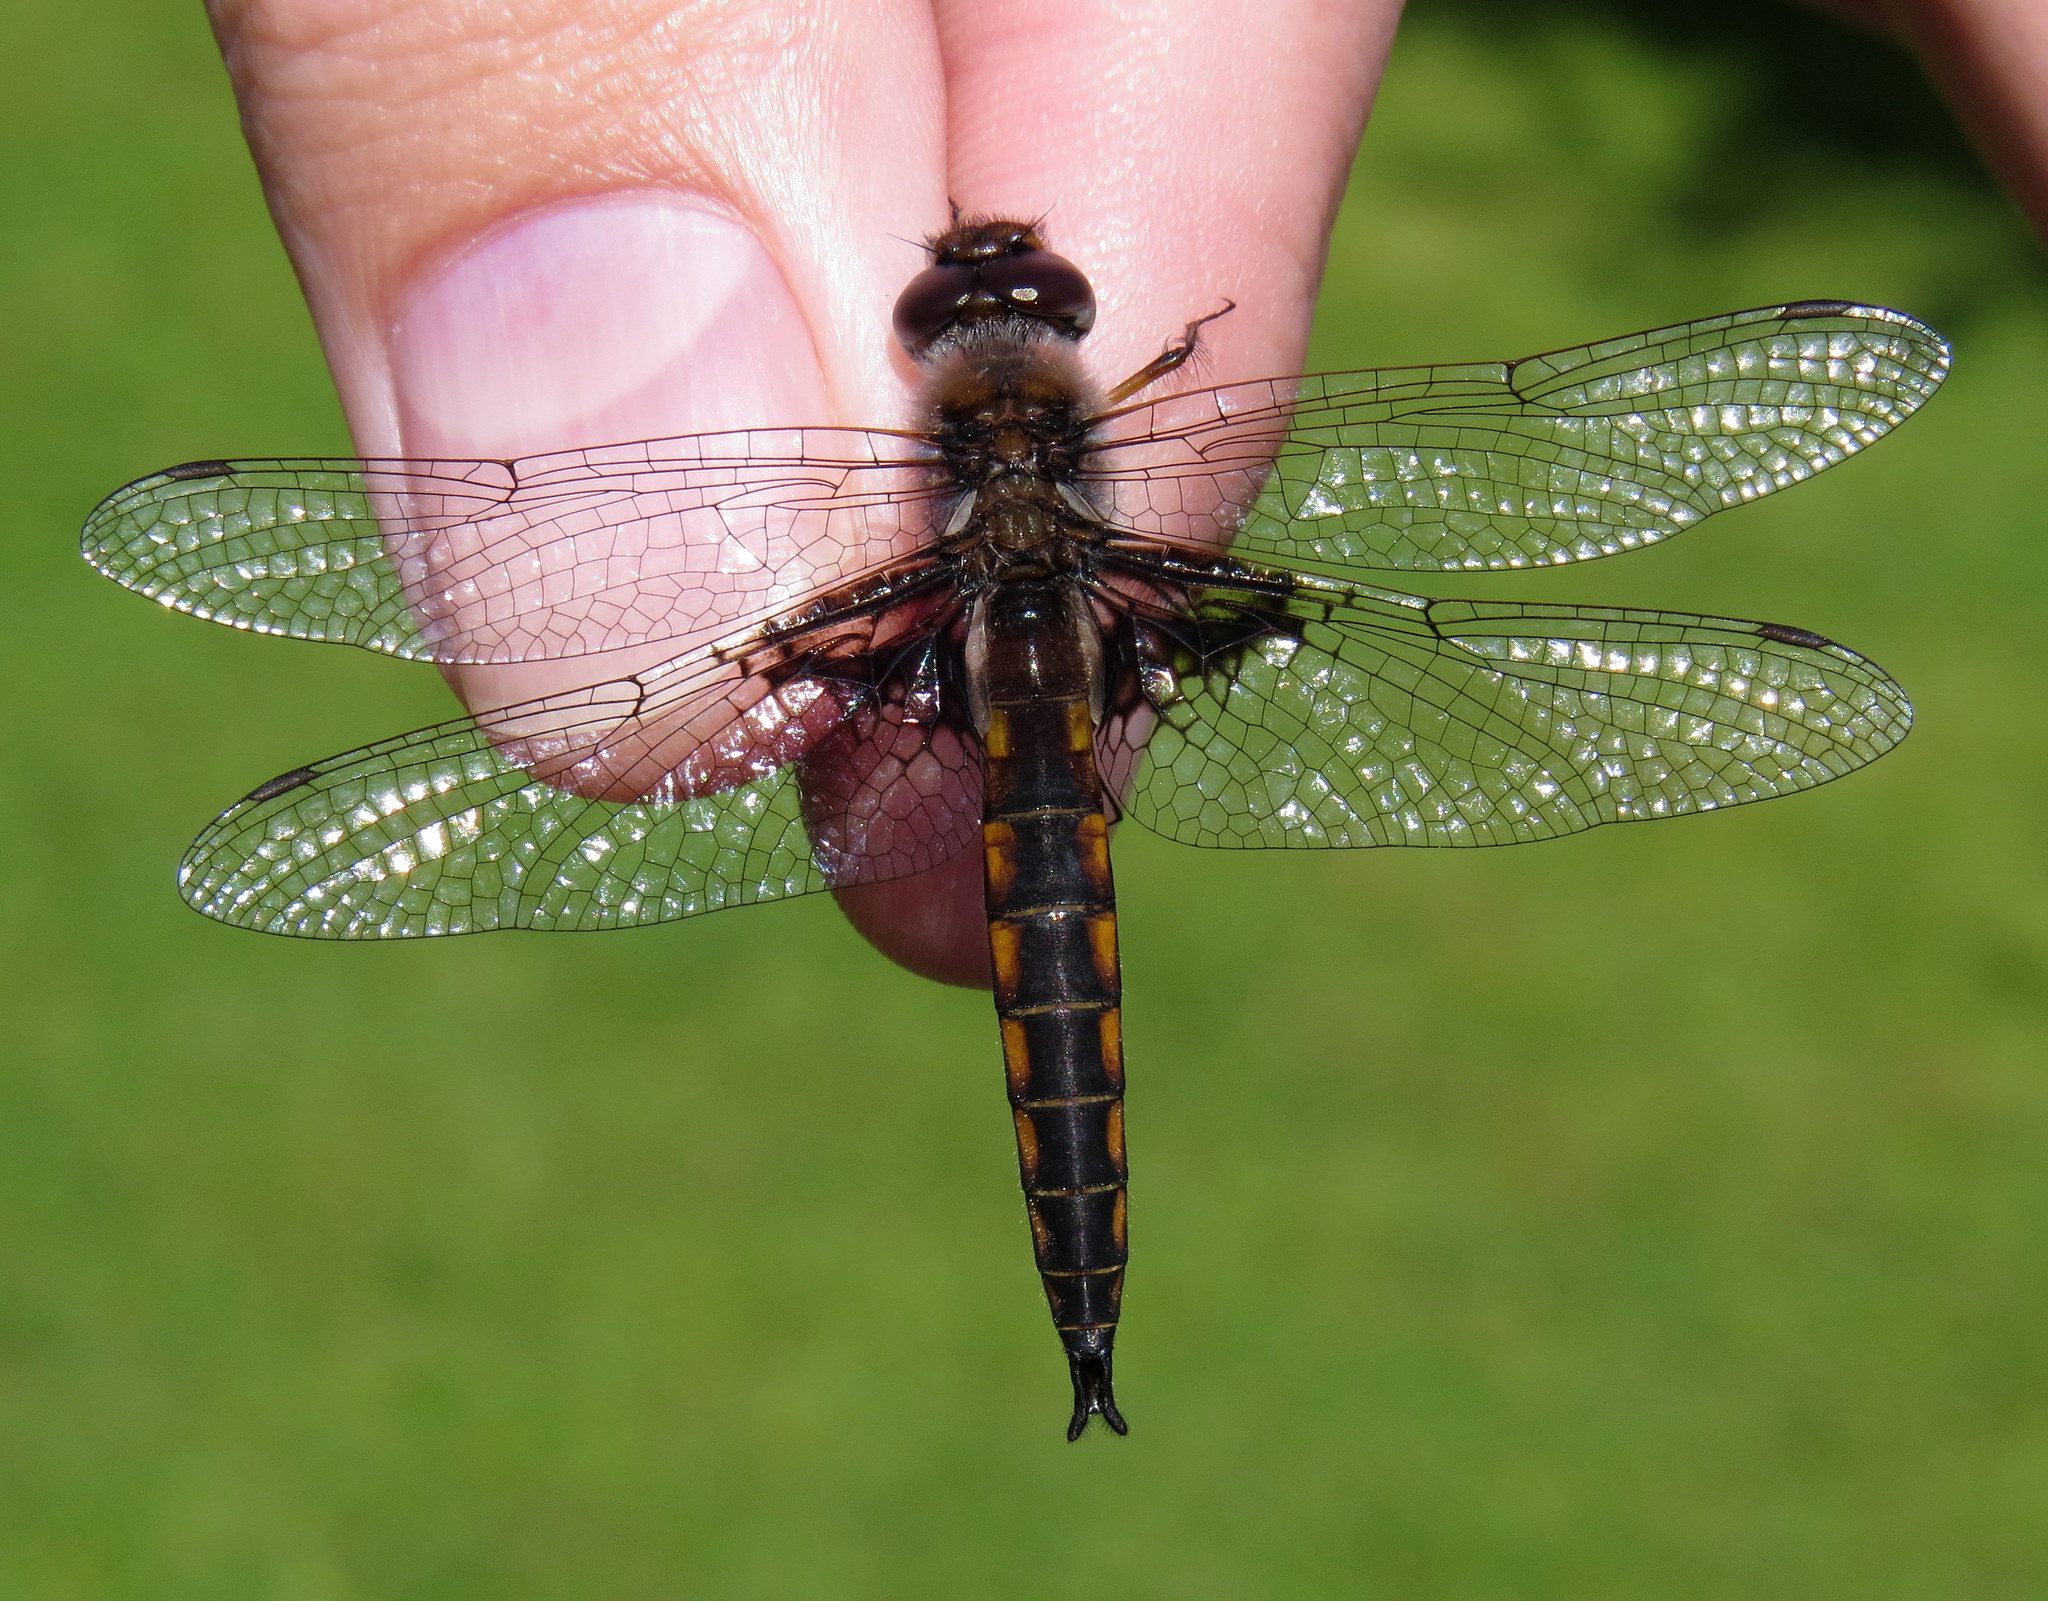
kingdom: Animalia
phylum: Arthropoda
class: Insecta
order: Odonata
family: Corduliidae
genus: Epitheca
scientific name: Epitheca semiaquea
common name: Mantled baskettail
